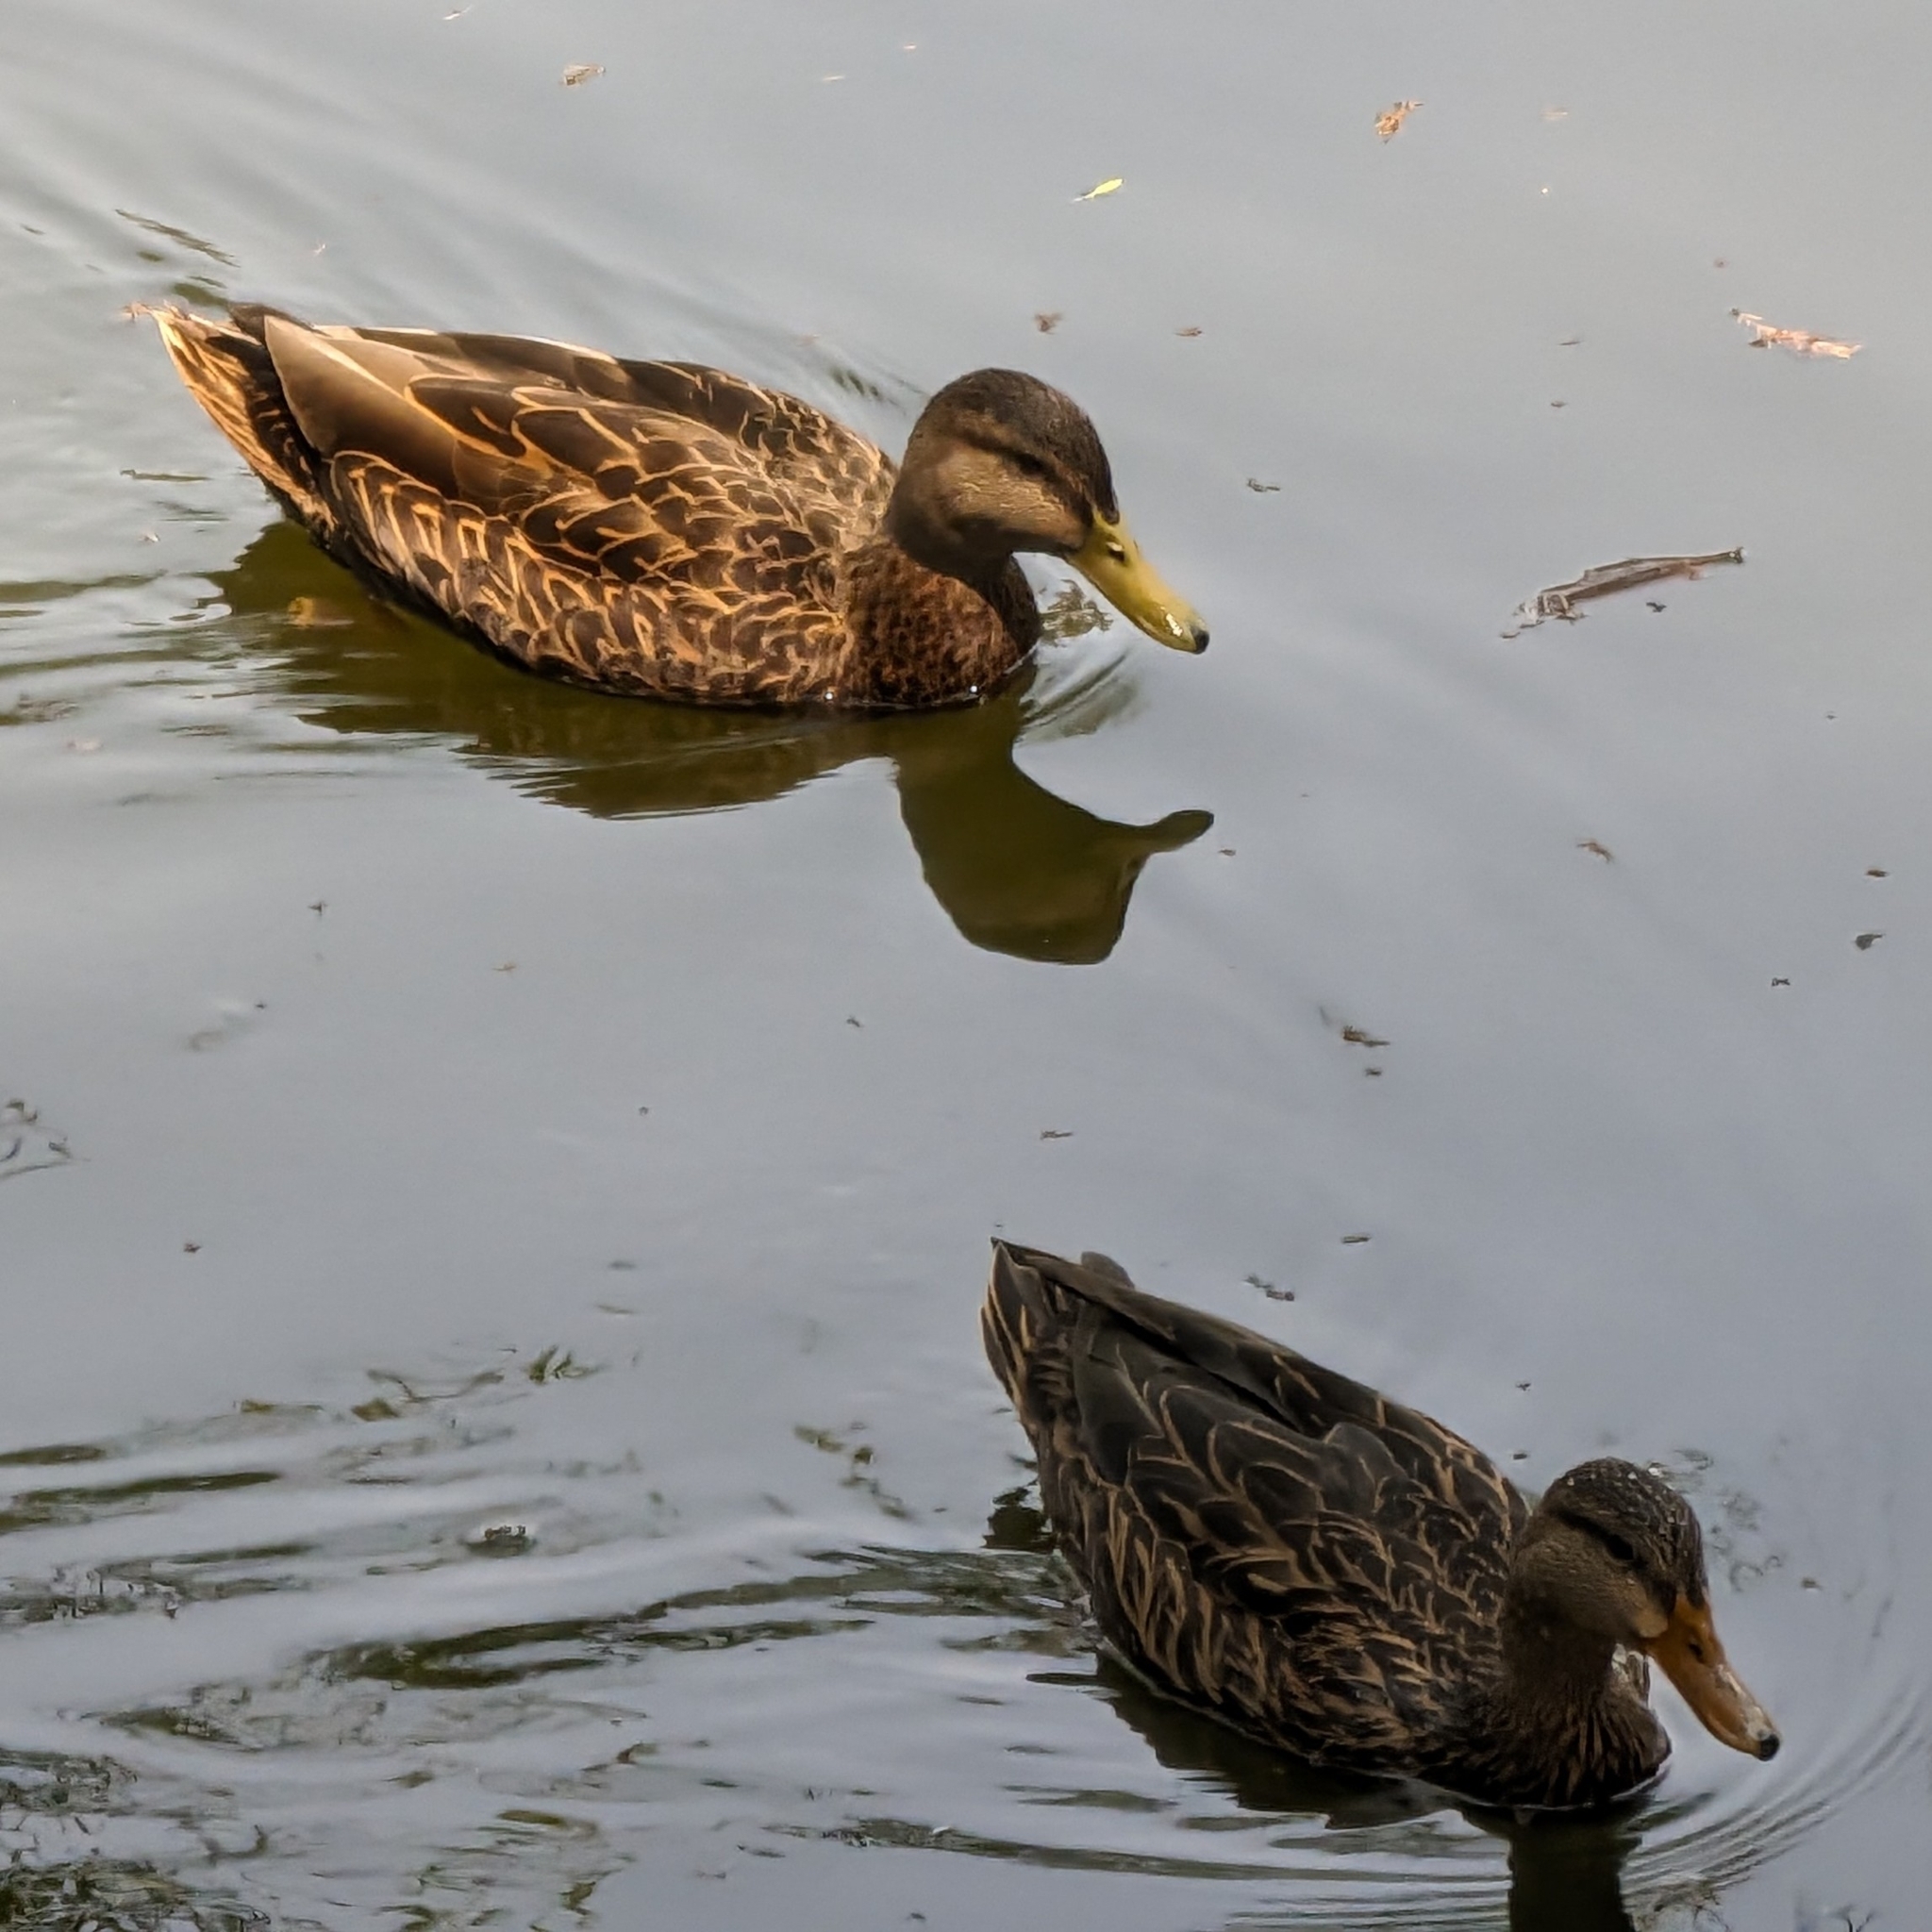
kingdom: Animalia
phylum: Chordata
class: Aves
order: Anseriformes
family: Anatidae
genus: Anas
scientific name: Anas diazi
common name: Mexican duck
